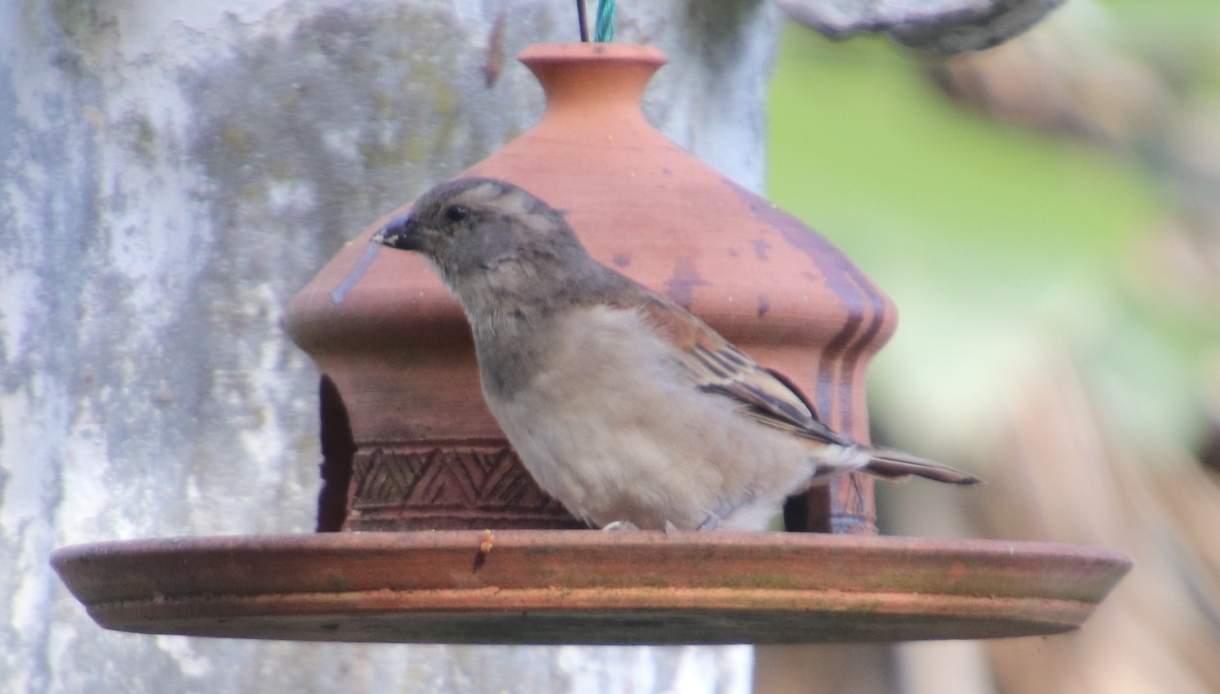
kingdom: Animalia
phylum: Chordata
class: Aves
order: Passeriformes
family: Passeridae
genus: Passer
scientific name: Passer melanurus
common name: Cape sparrow
